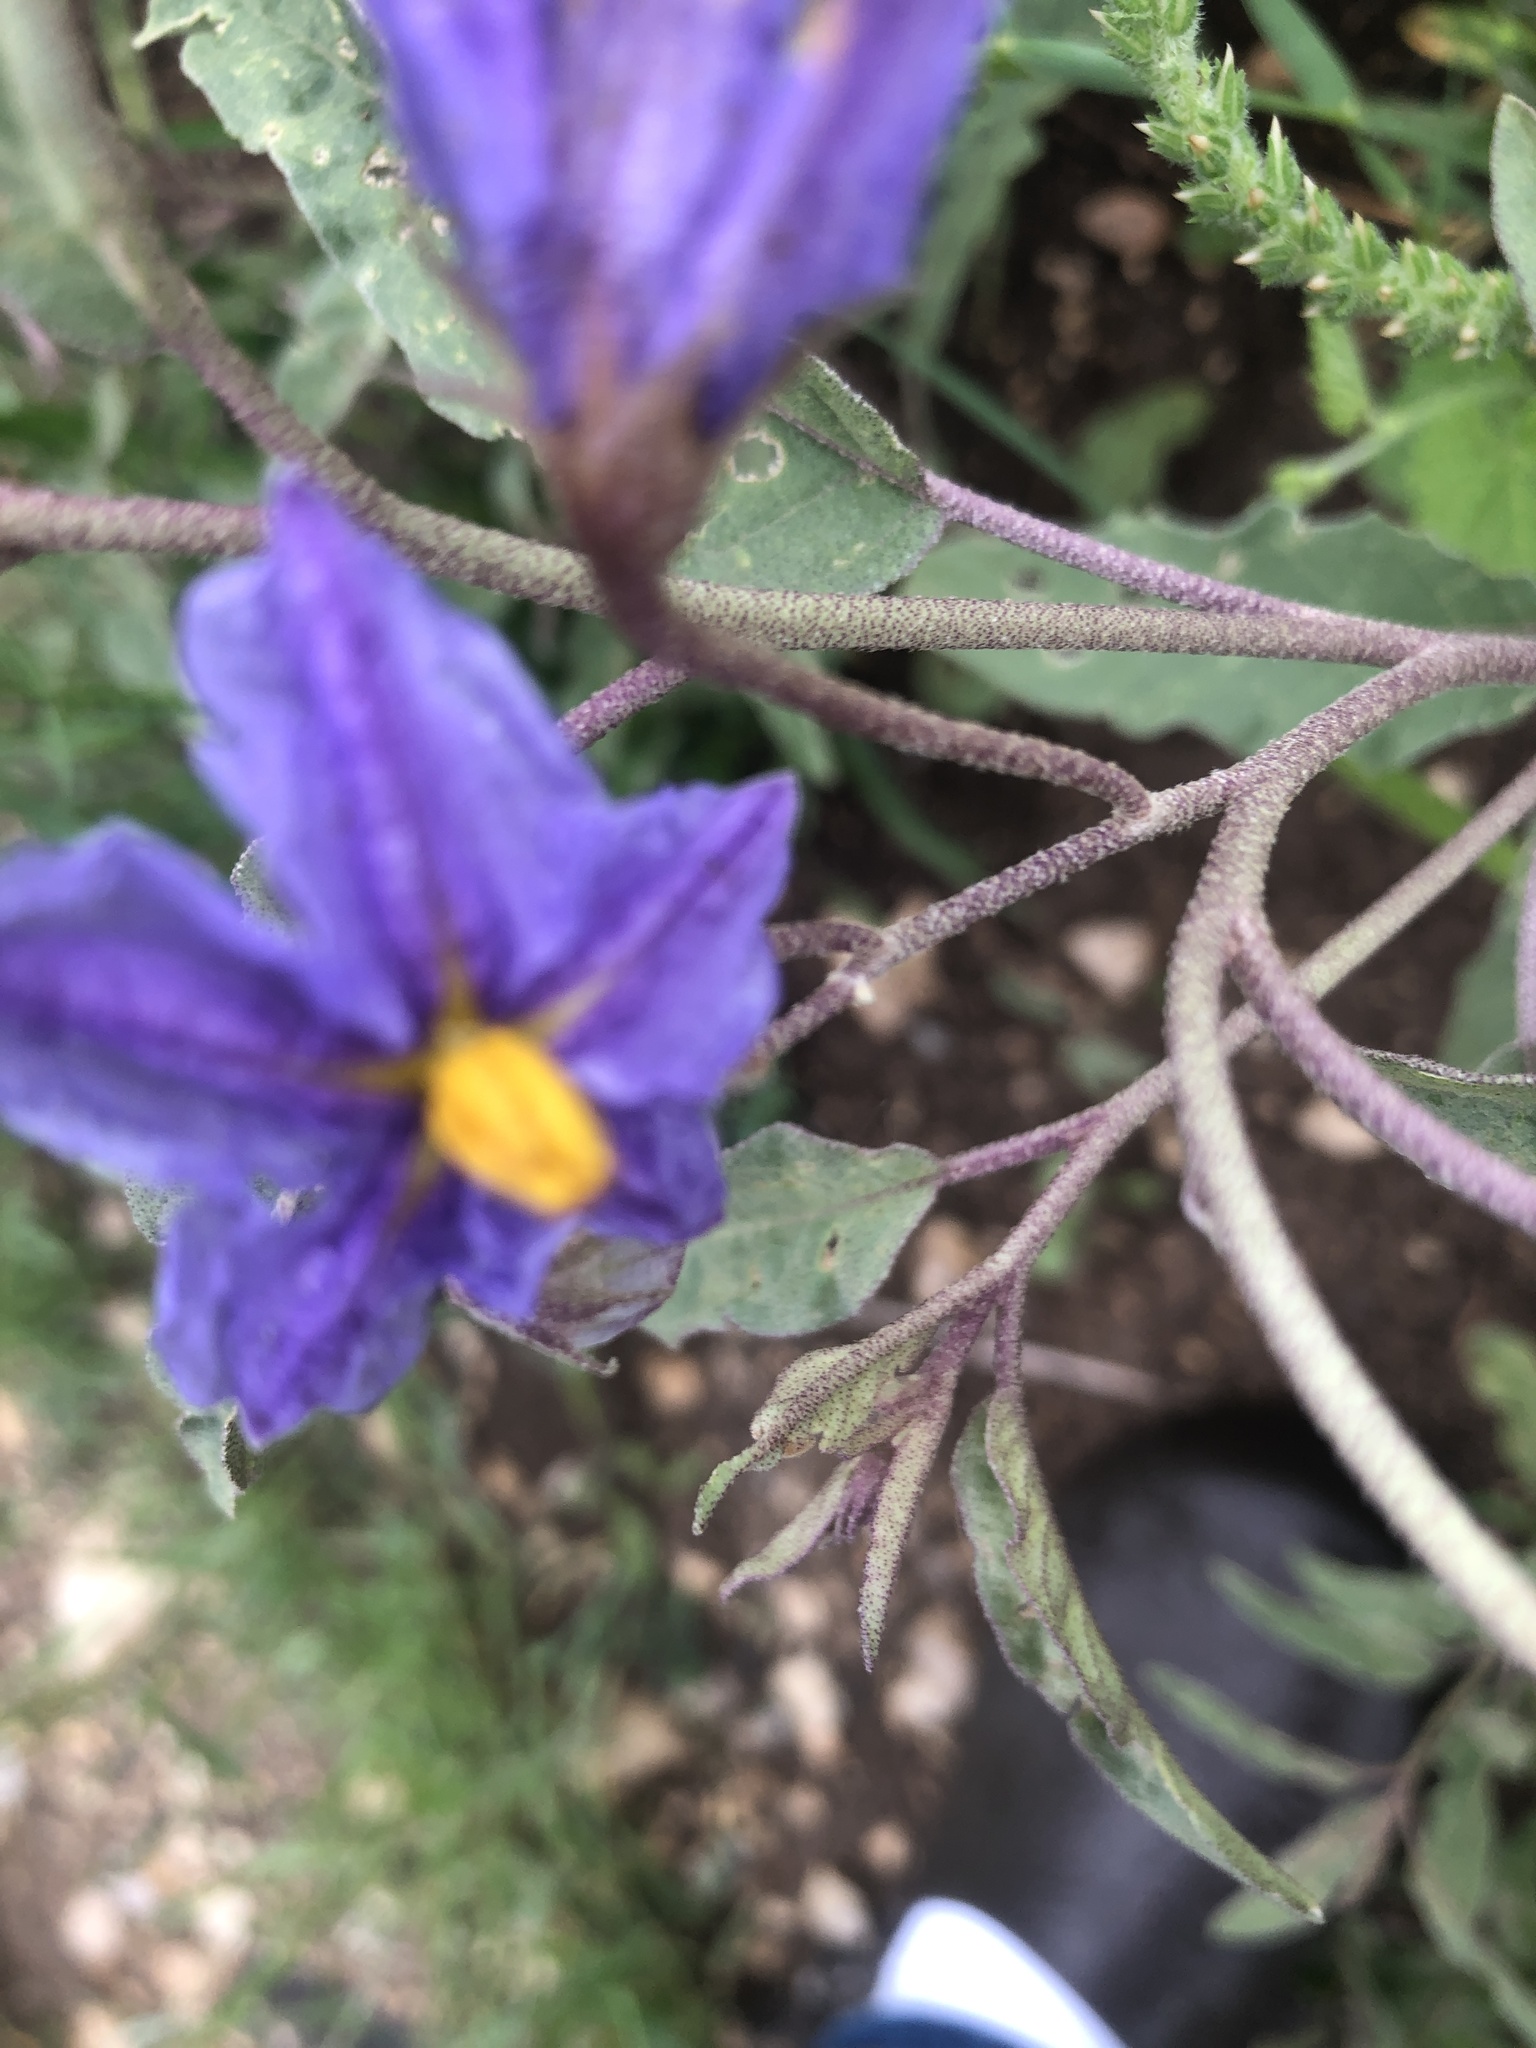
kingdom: Plantae
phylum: Tracheophyta
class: Magnoliopsida
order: Solanales
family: Solanaceae
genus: Solanum
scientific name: Solanum elaeagnifolium
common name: Silverleaf nightshade
